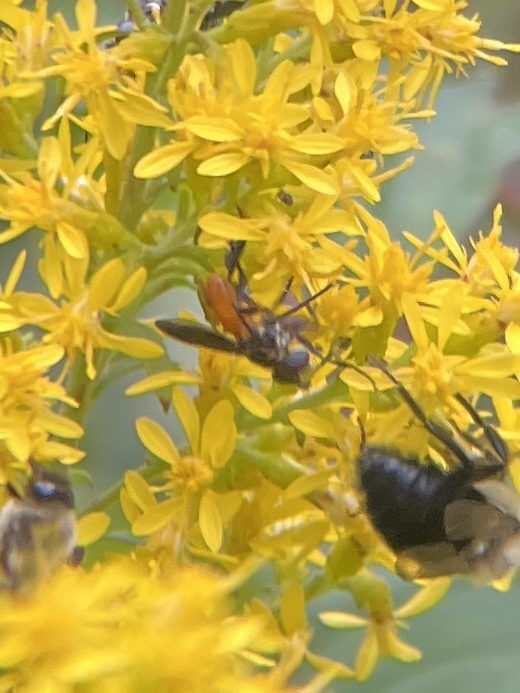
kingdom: Animalia
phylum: Arthropoda
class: Insecta
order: Diptera
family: Tachinidae
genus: Trichopoda
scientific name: Trichopoda pennipes
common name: Tachinid fly
